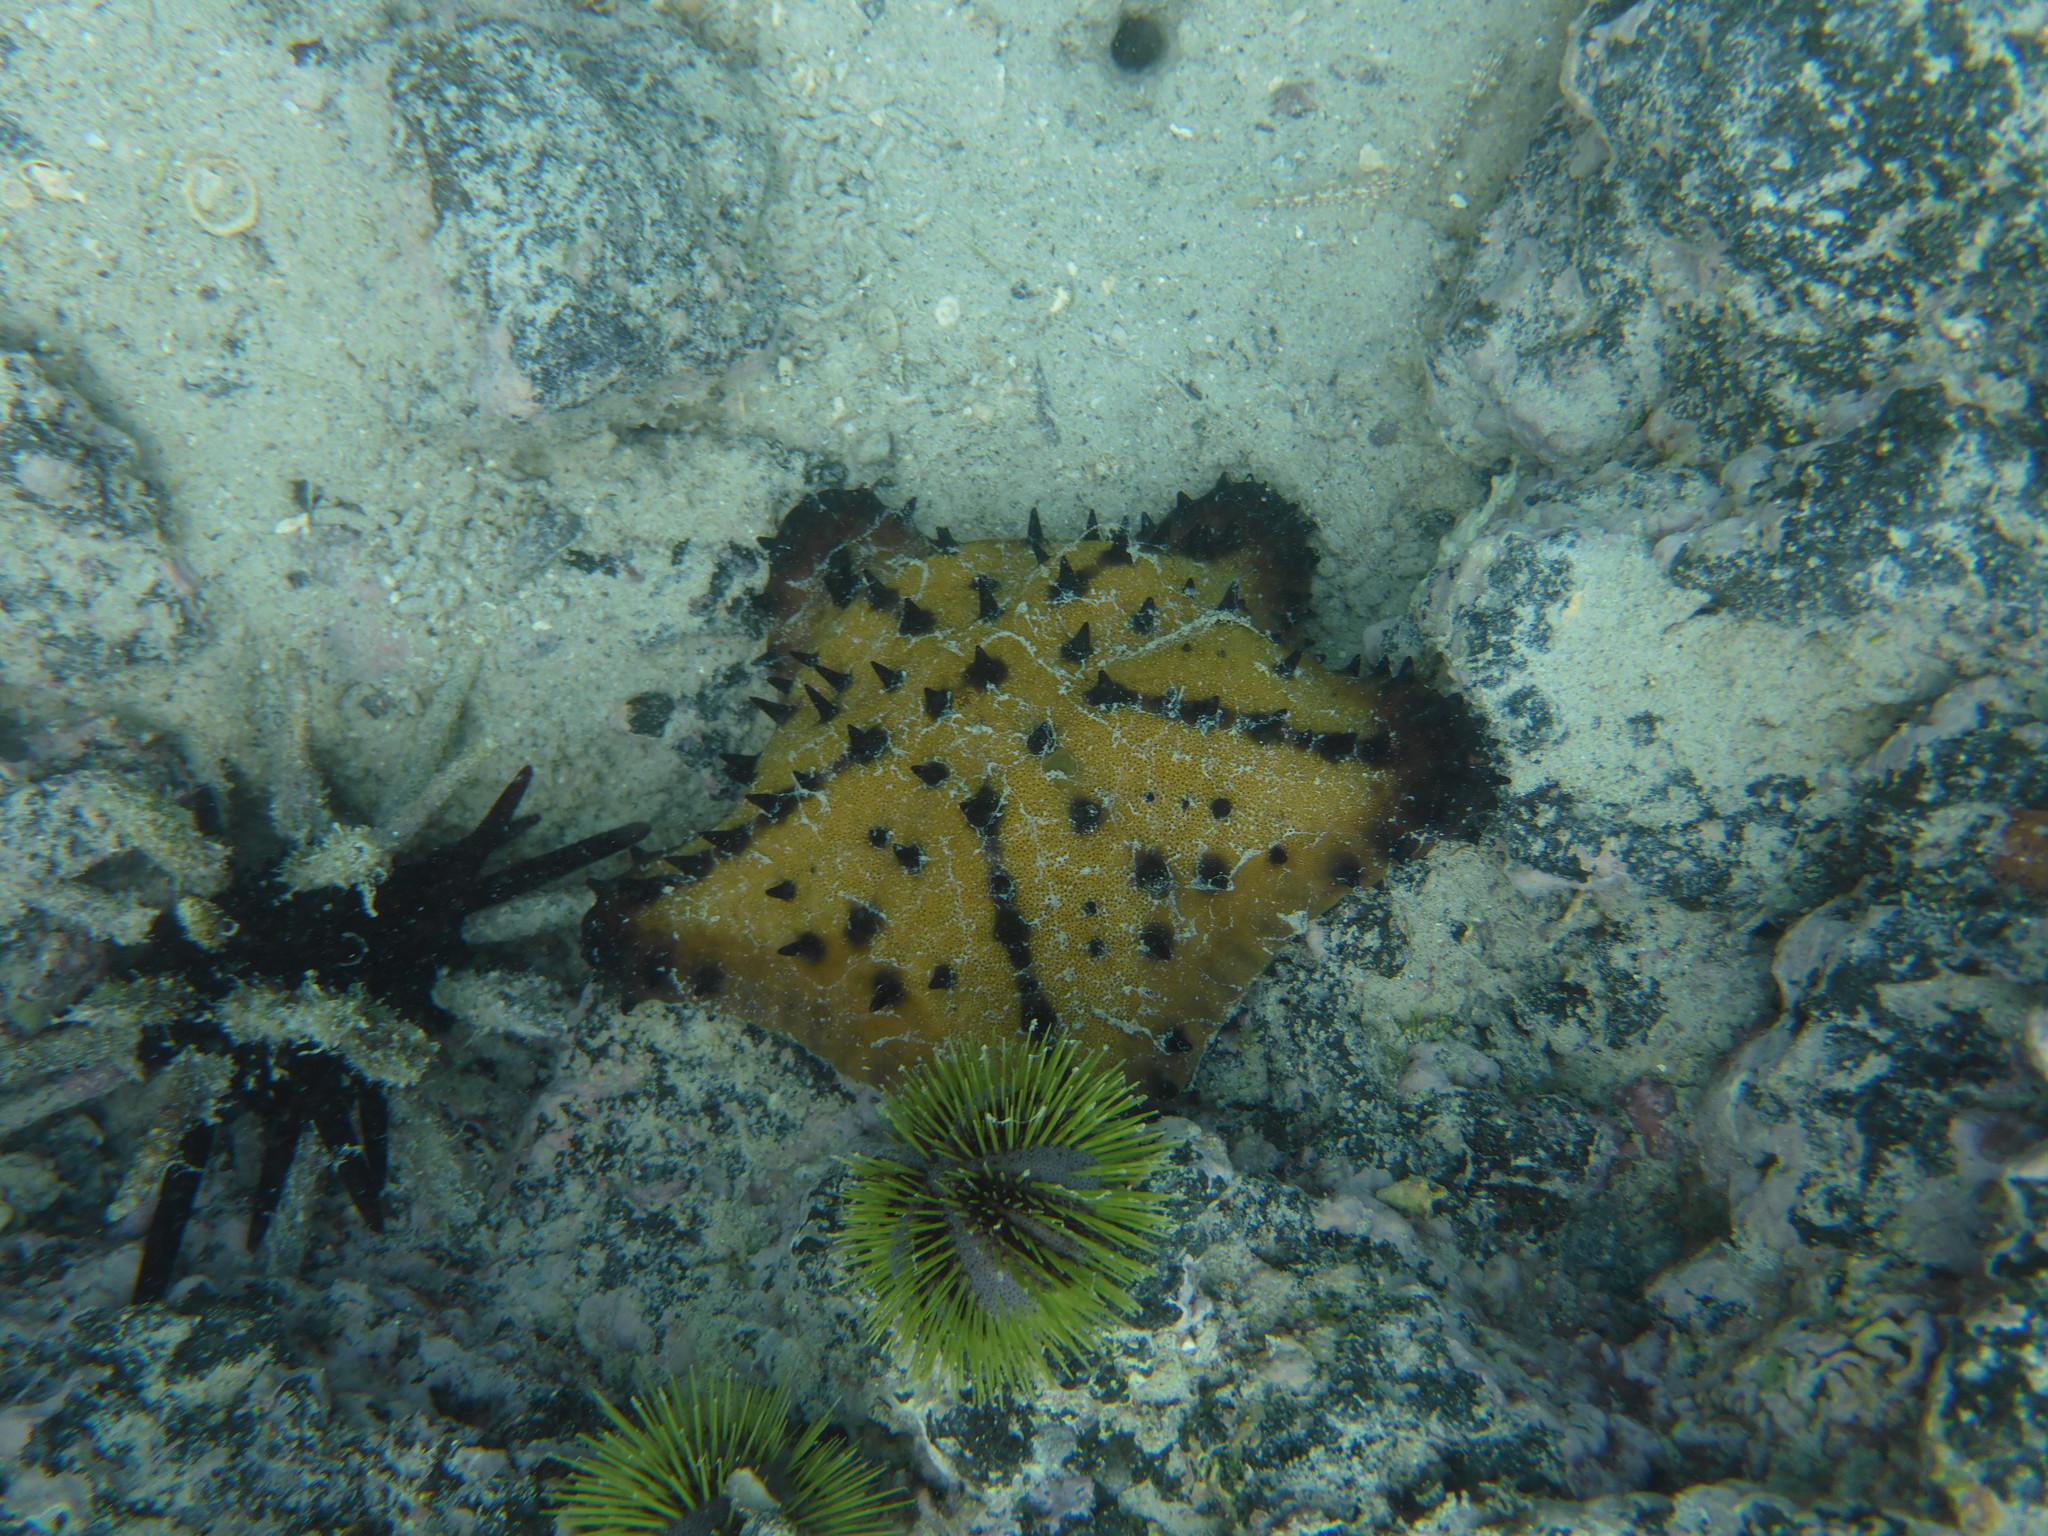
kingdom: Animalia
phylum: Echinodermata
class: Asteroidea
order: Valvatida
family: Oreasteridae
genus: Nidorellia
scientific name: Nidorellia armata
